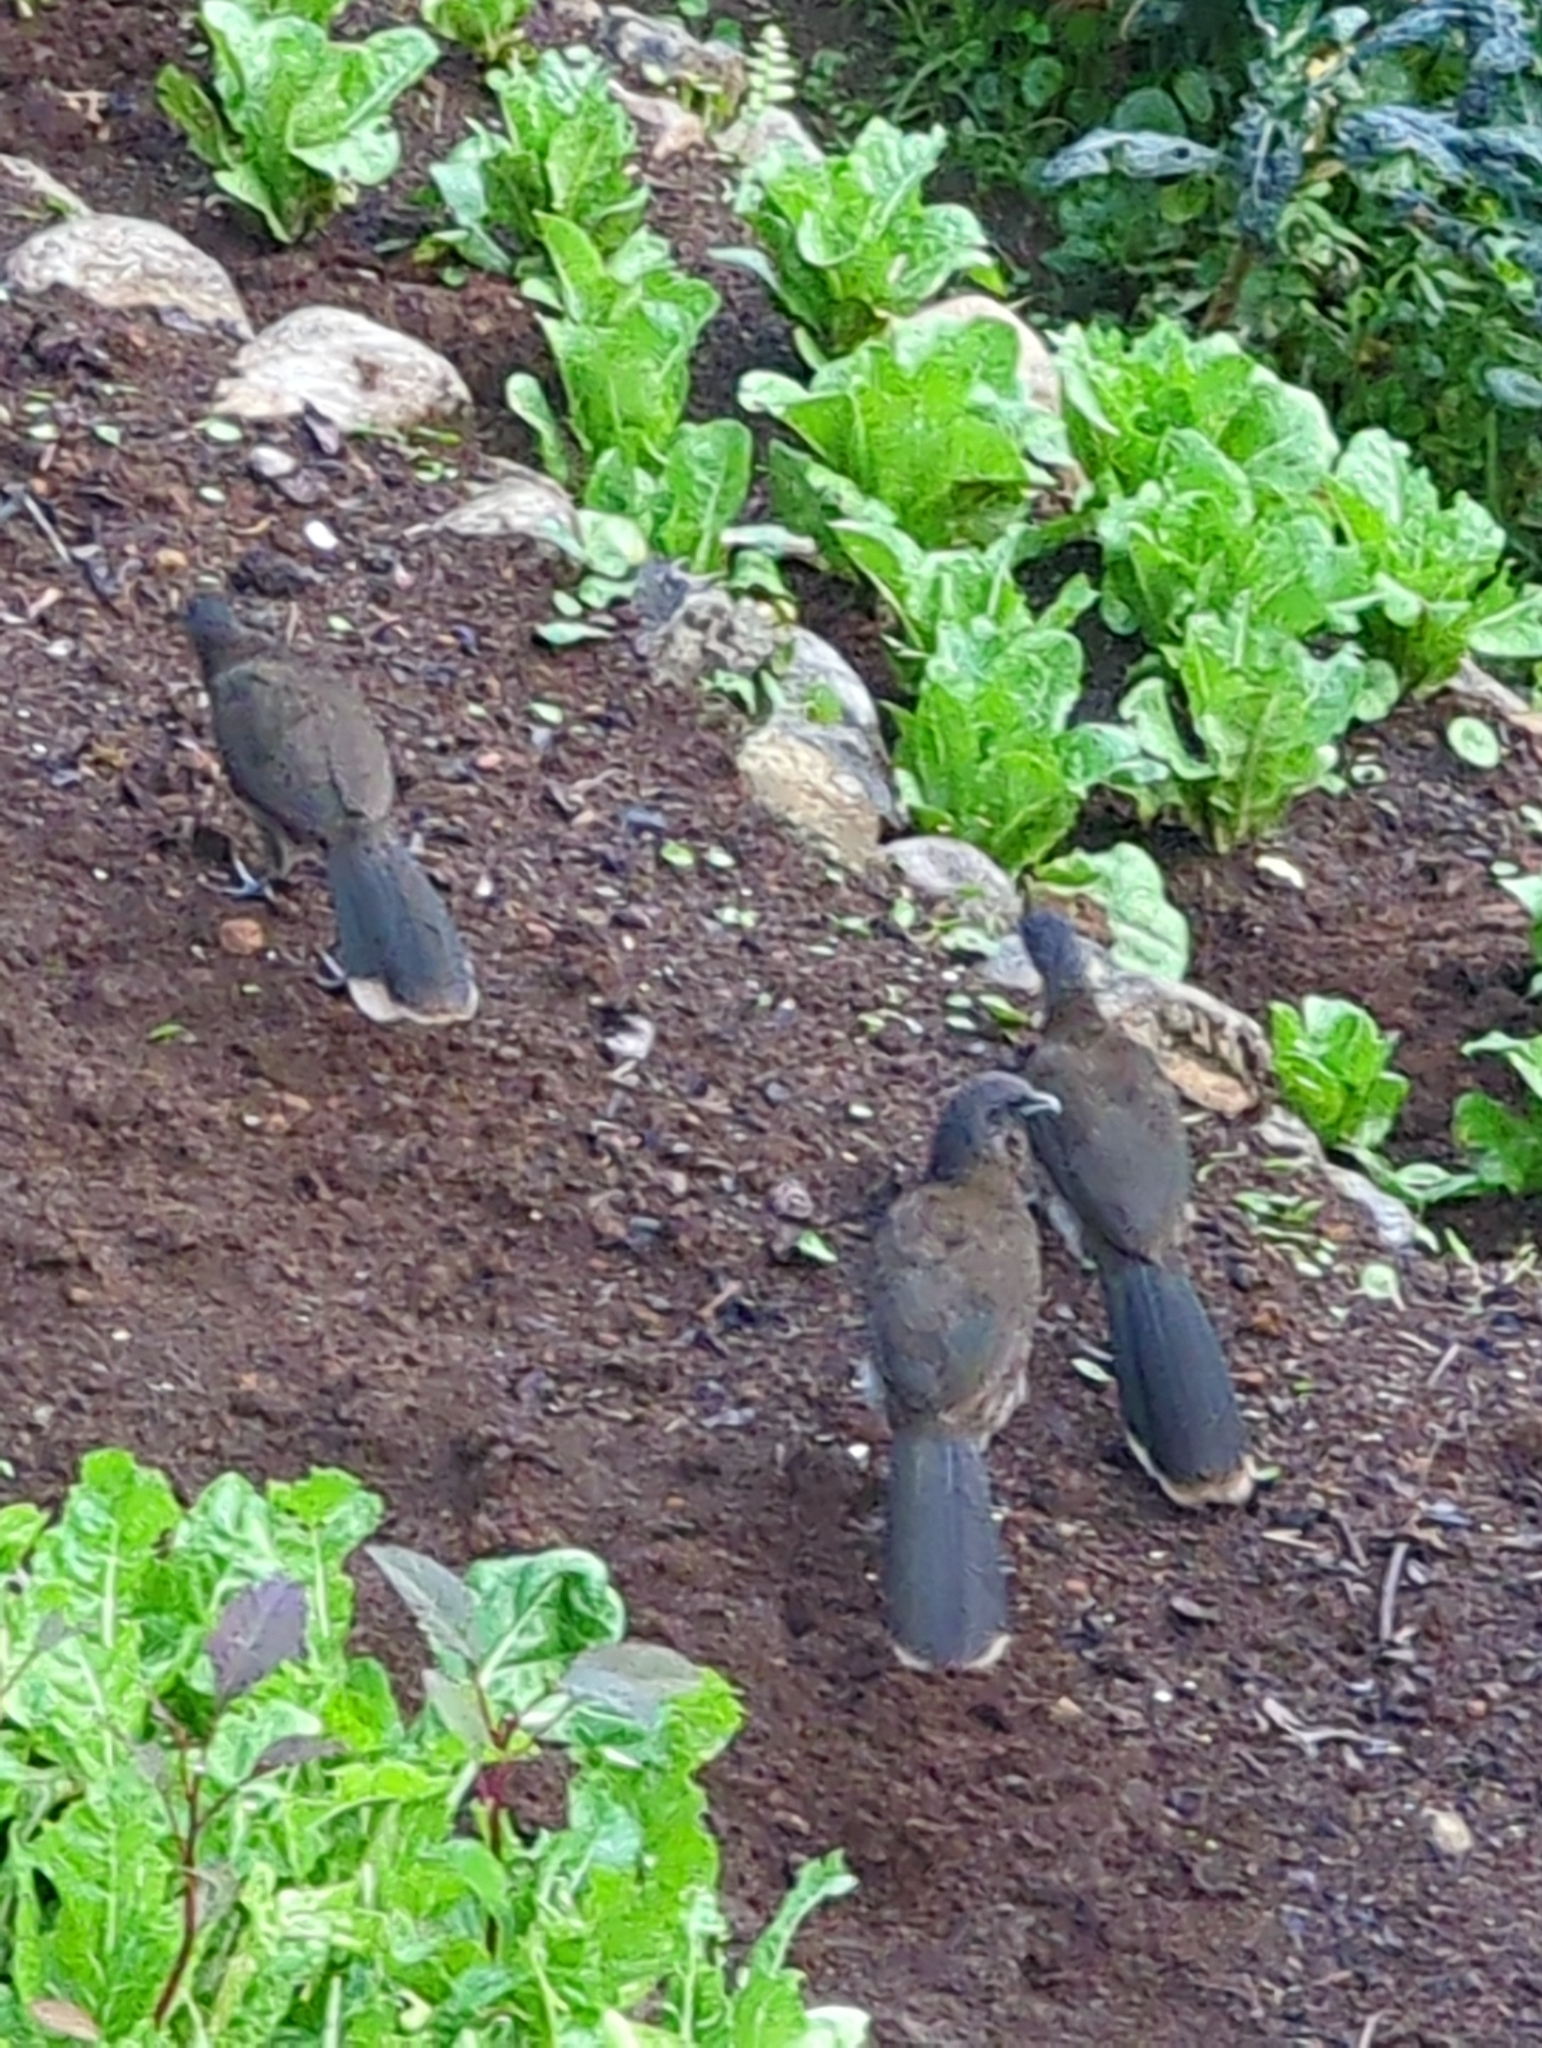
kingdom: Animalia
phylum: Chordata
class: Aves
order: Galliformes
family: Cracidae
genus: Ortalis
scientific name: Ortalis cinereiceps
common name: Grey-headed chachalaca
